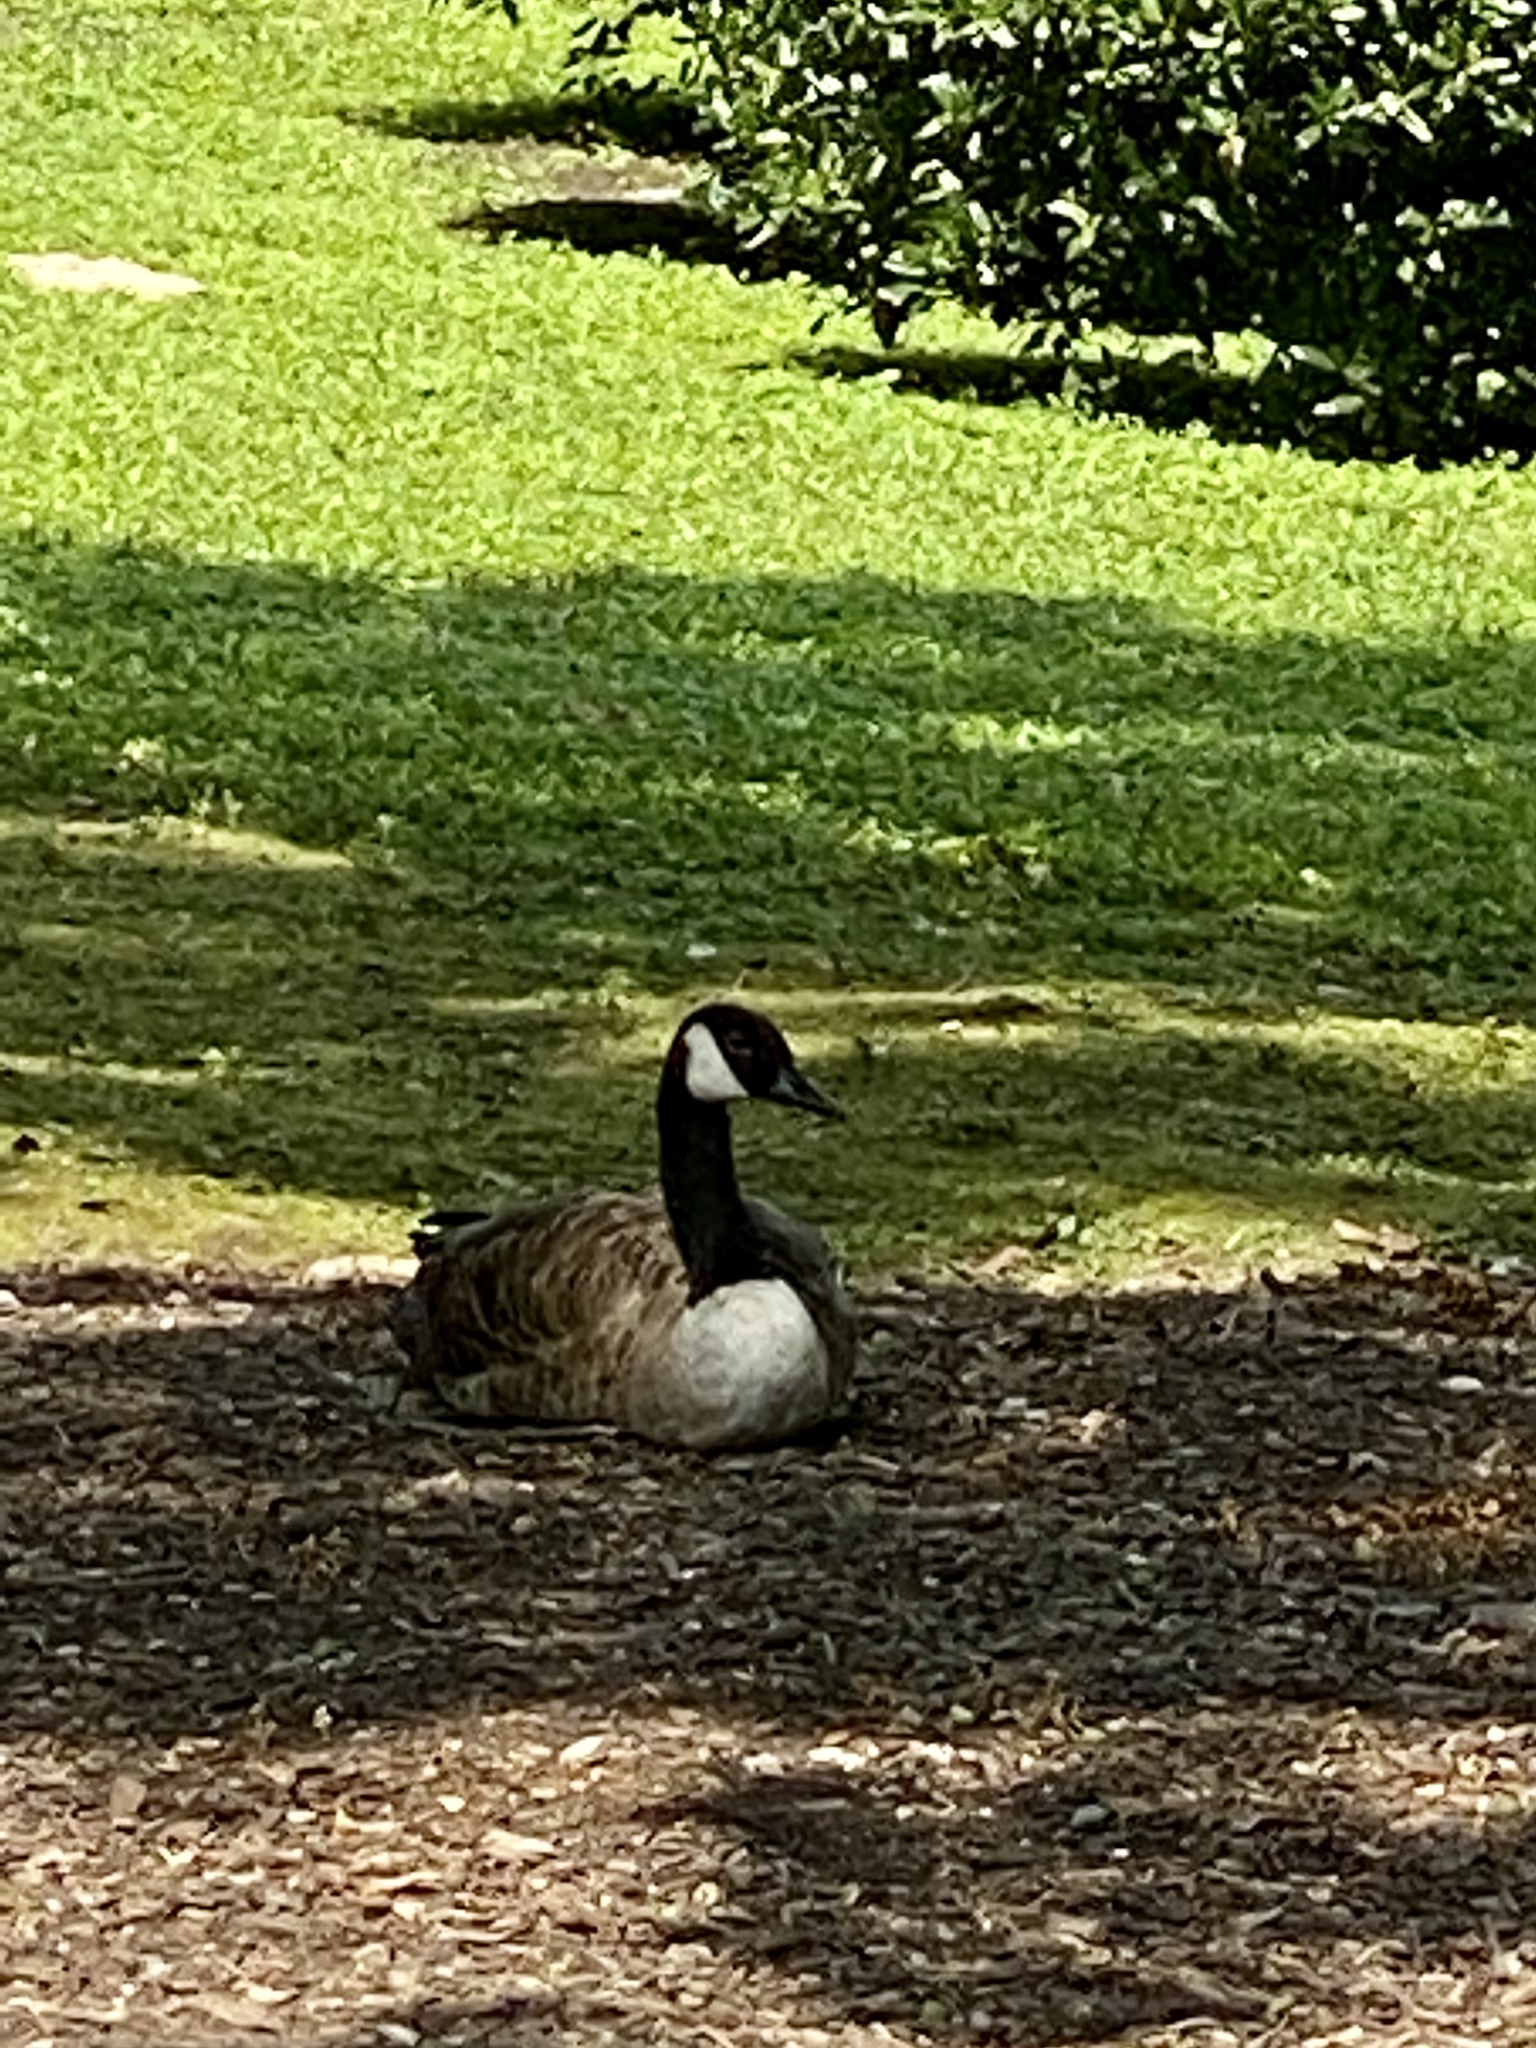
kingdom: Animalia
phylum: Chordata
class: Aves
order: Anseriformes
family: Anatidae
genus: Branta
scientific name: Branta canadensis
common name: Canada goose
